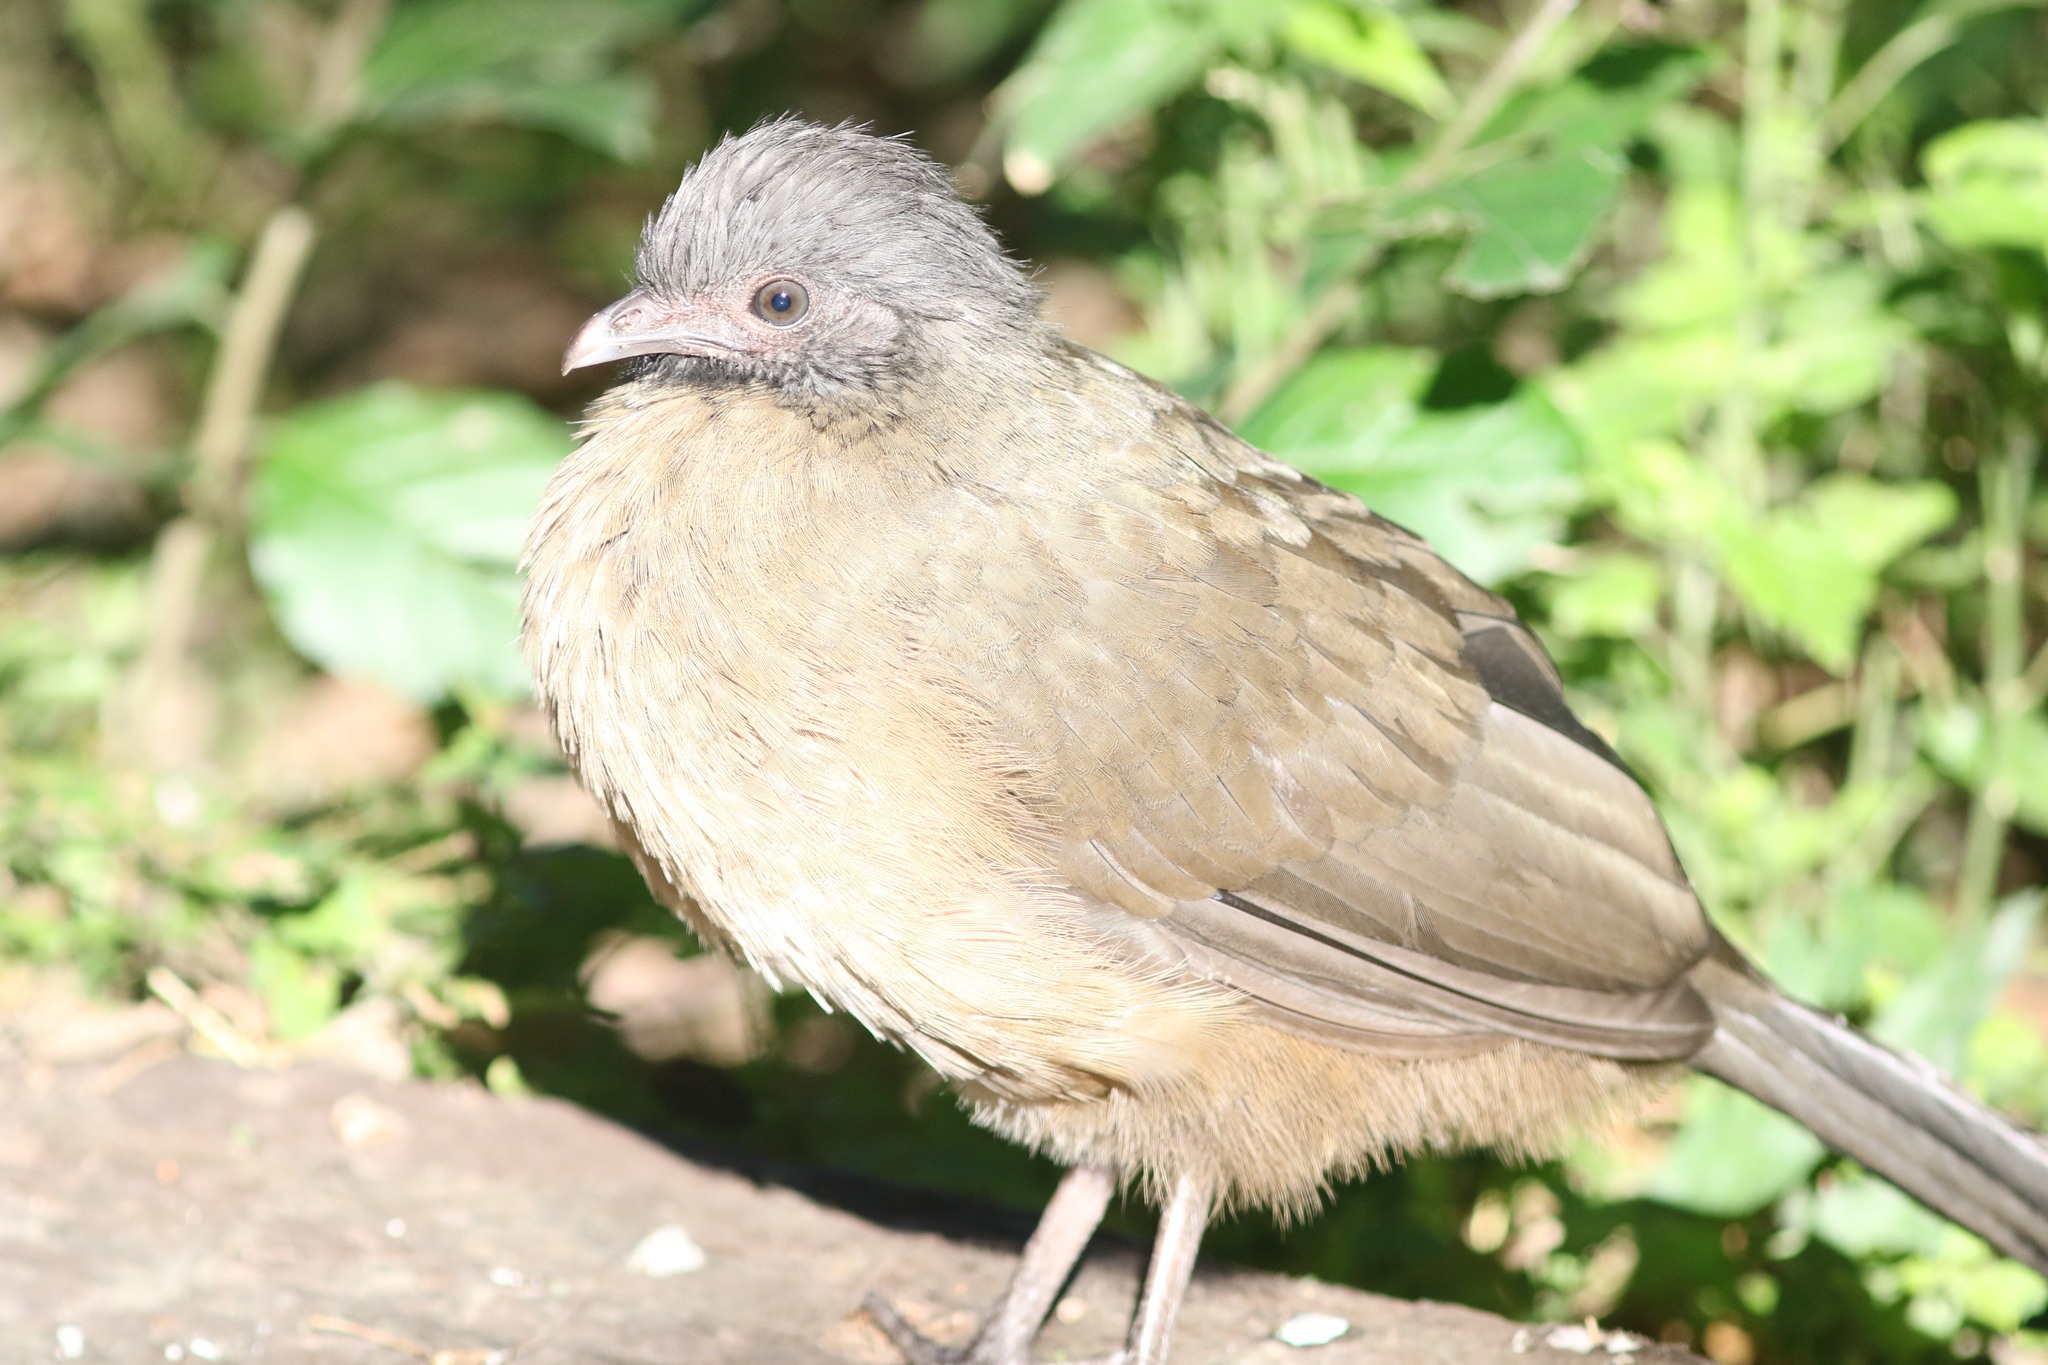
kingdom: Animalia
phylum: Chordata
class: Aves
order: Galliformes
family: Cracidae
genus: Ortalis
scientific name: Ortalis vetula
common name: Plain chachalaca
